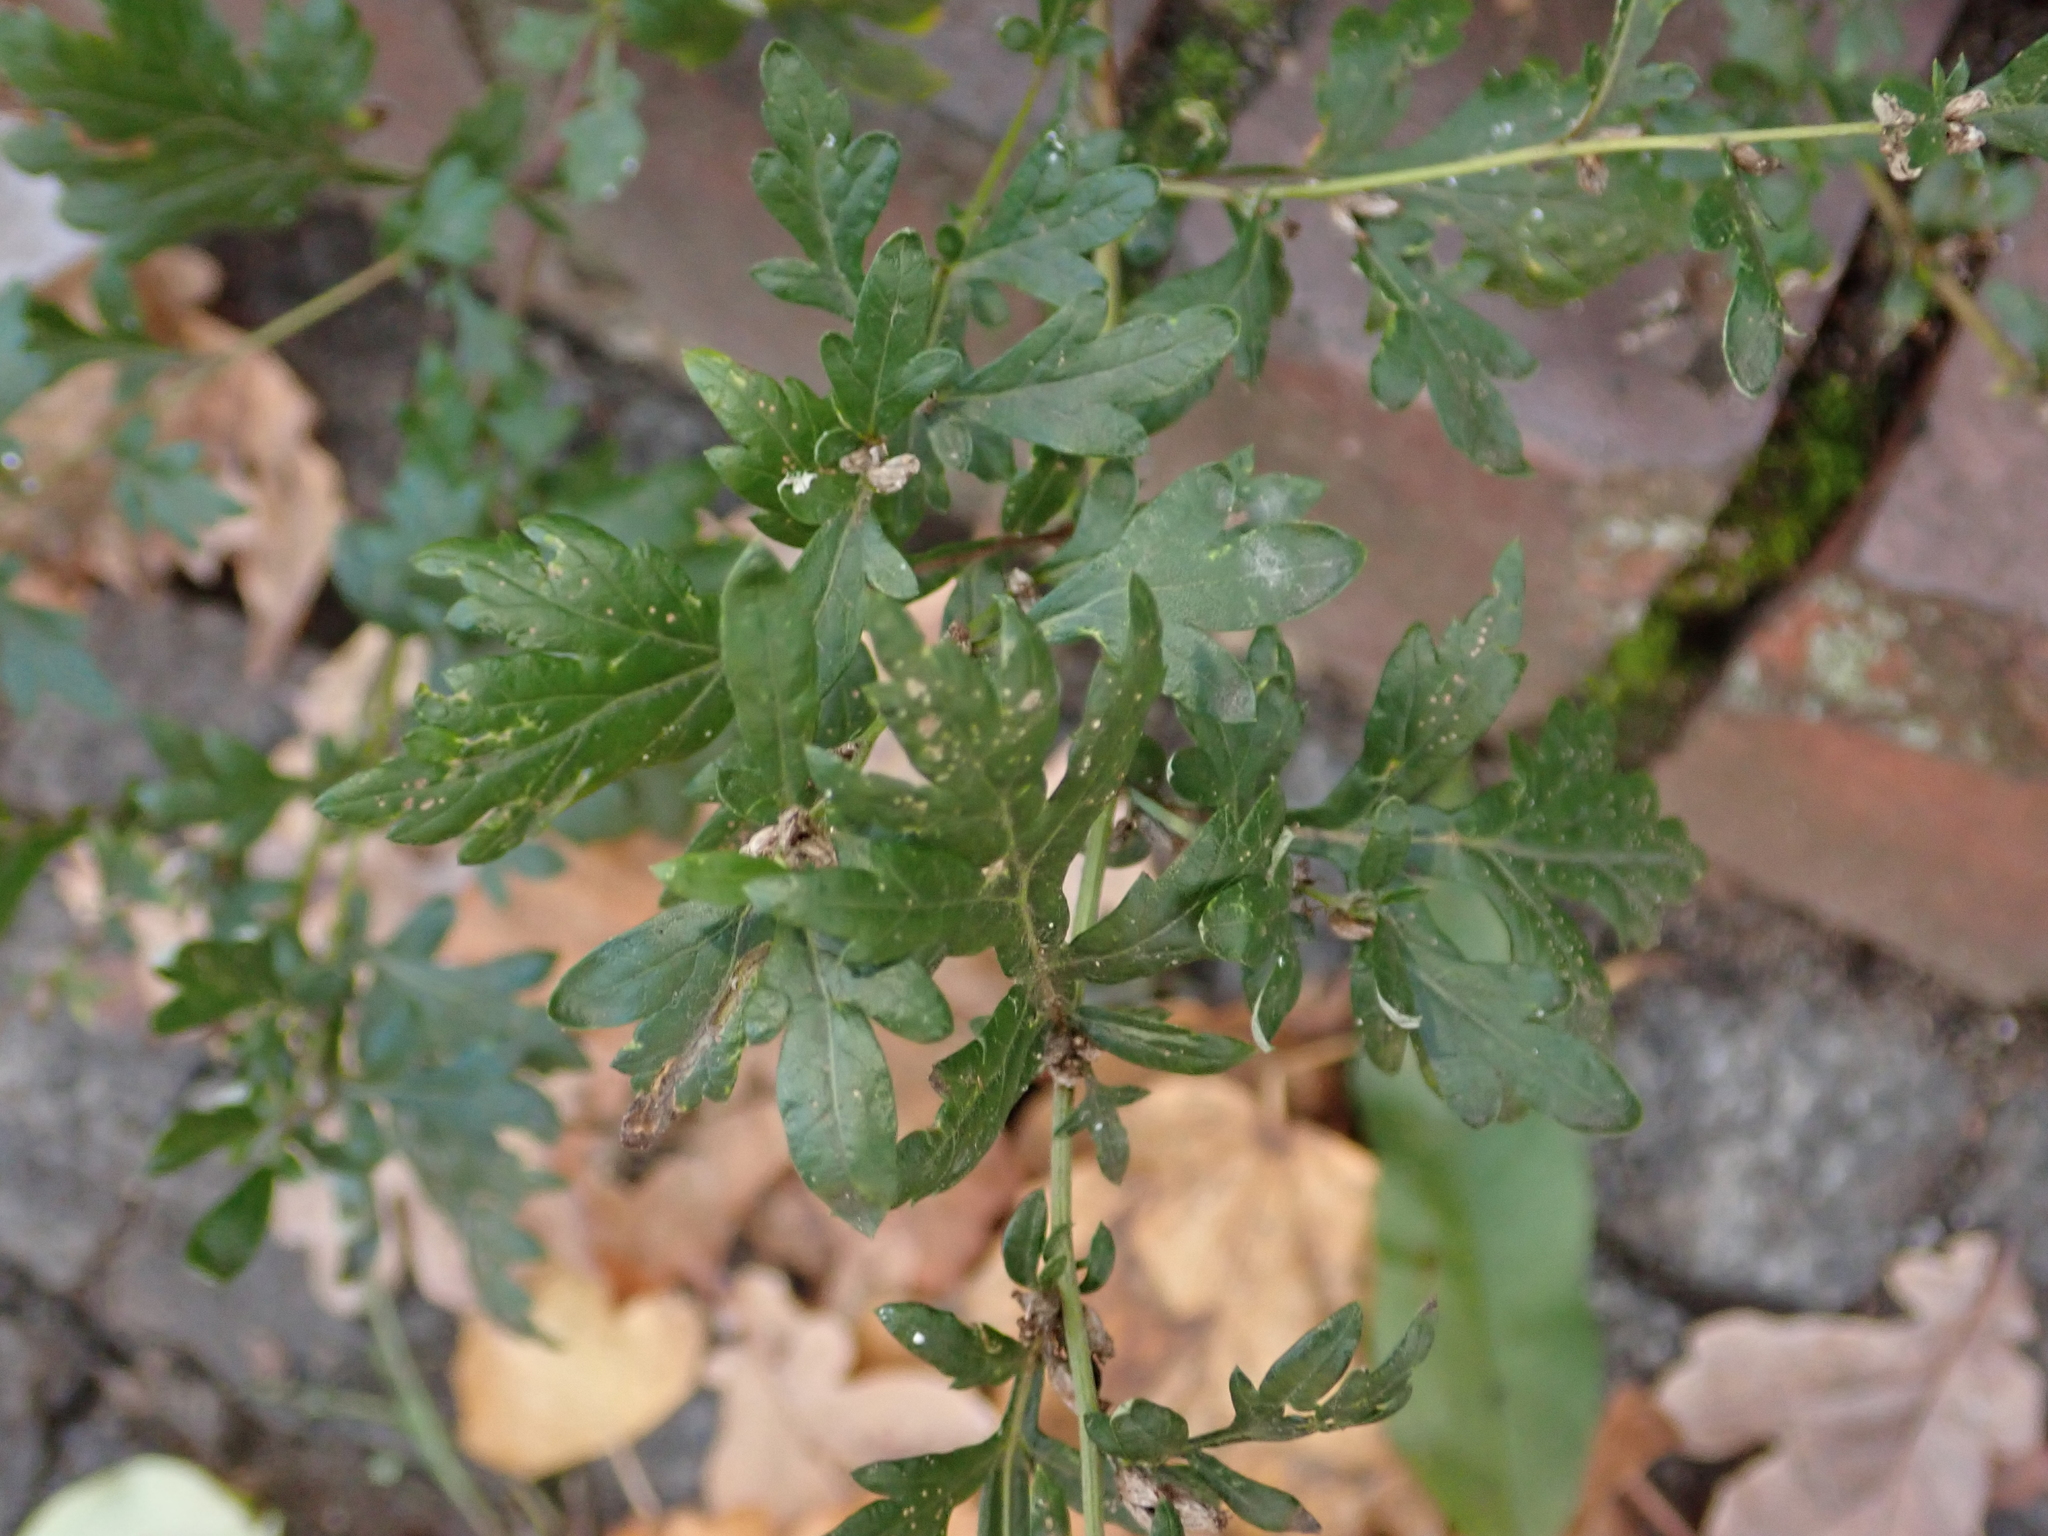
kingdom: Plantae
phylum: Tracheophyta
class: Magnoliopsida
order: Asterales
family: Asteraceae
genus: Artemisia
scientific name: Artemisia vulgaris
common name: Mugwort
